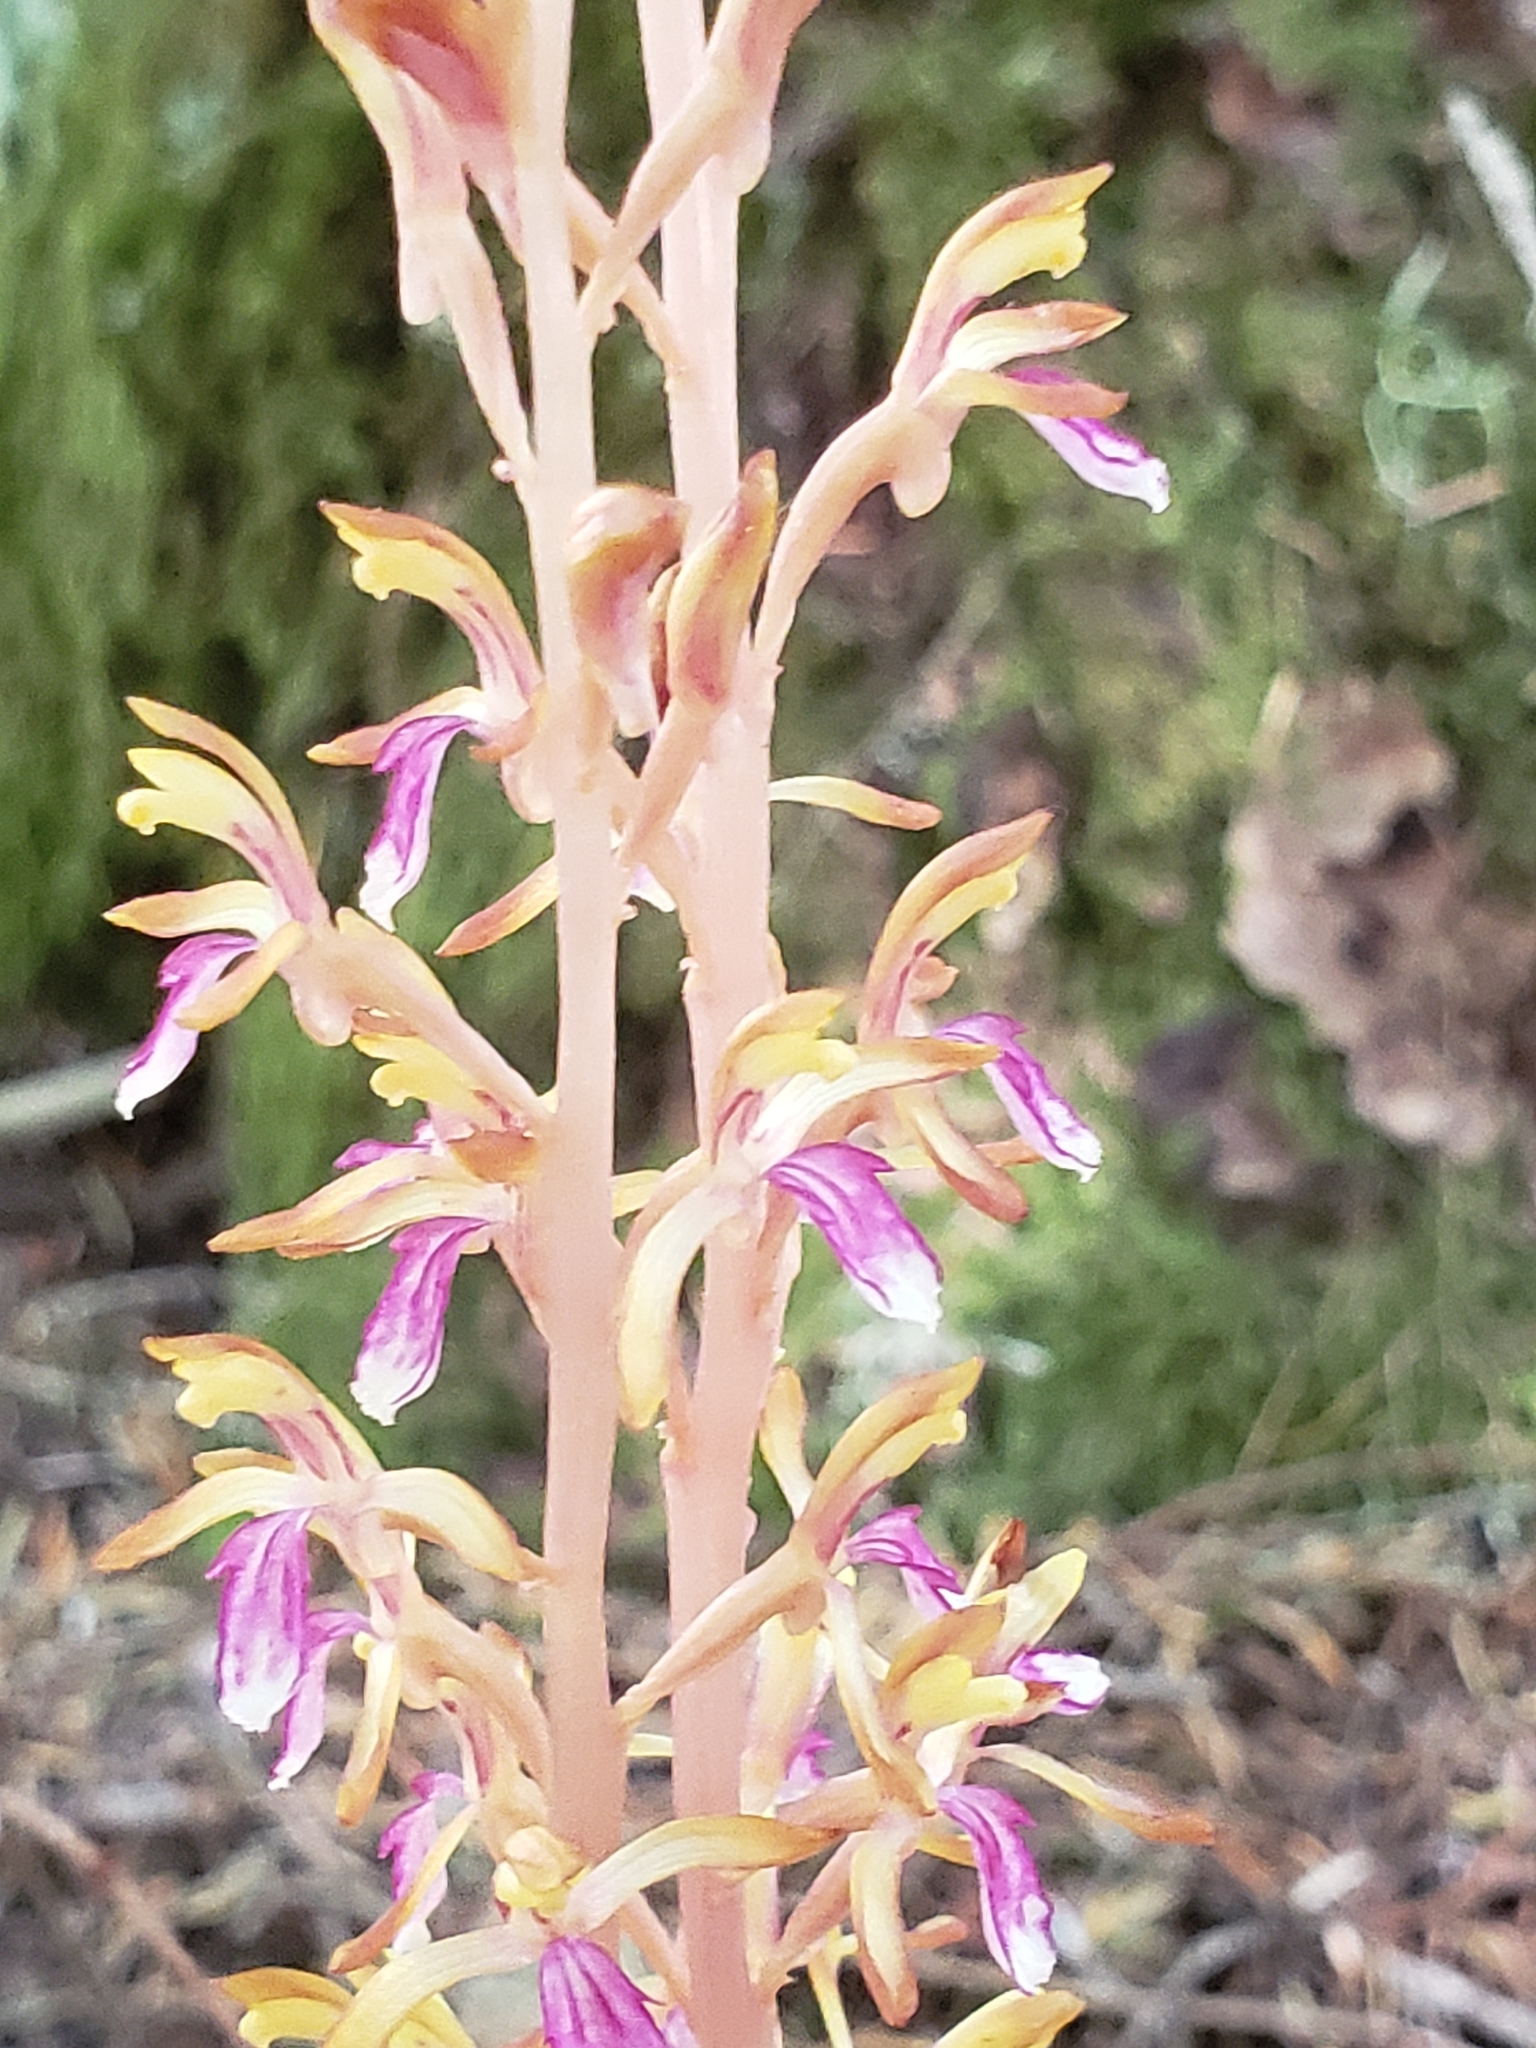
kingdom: Plantae
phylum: Tracheophyta
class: Liliopsida
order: Asparagales
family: Orchidaceae
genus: Corallorhiza
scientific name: Corallorhiza mertensiana
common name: Pacific coralroot
